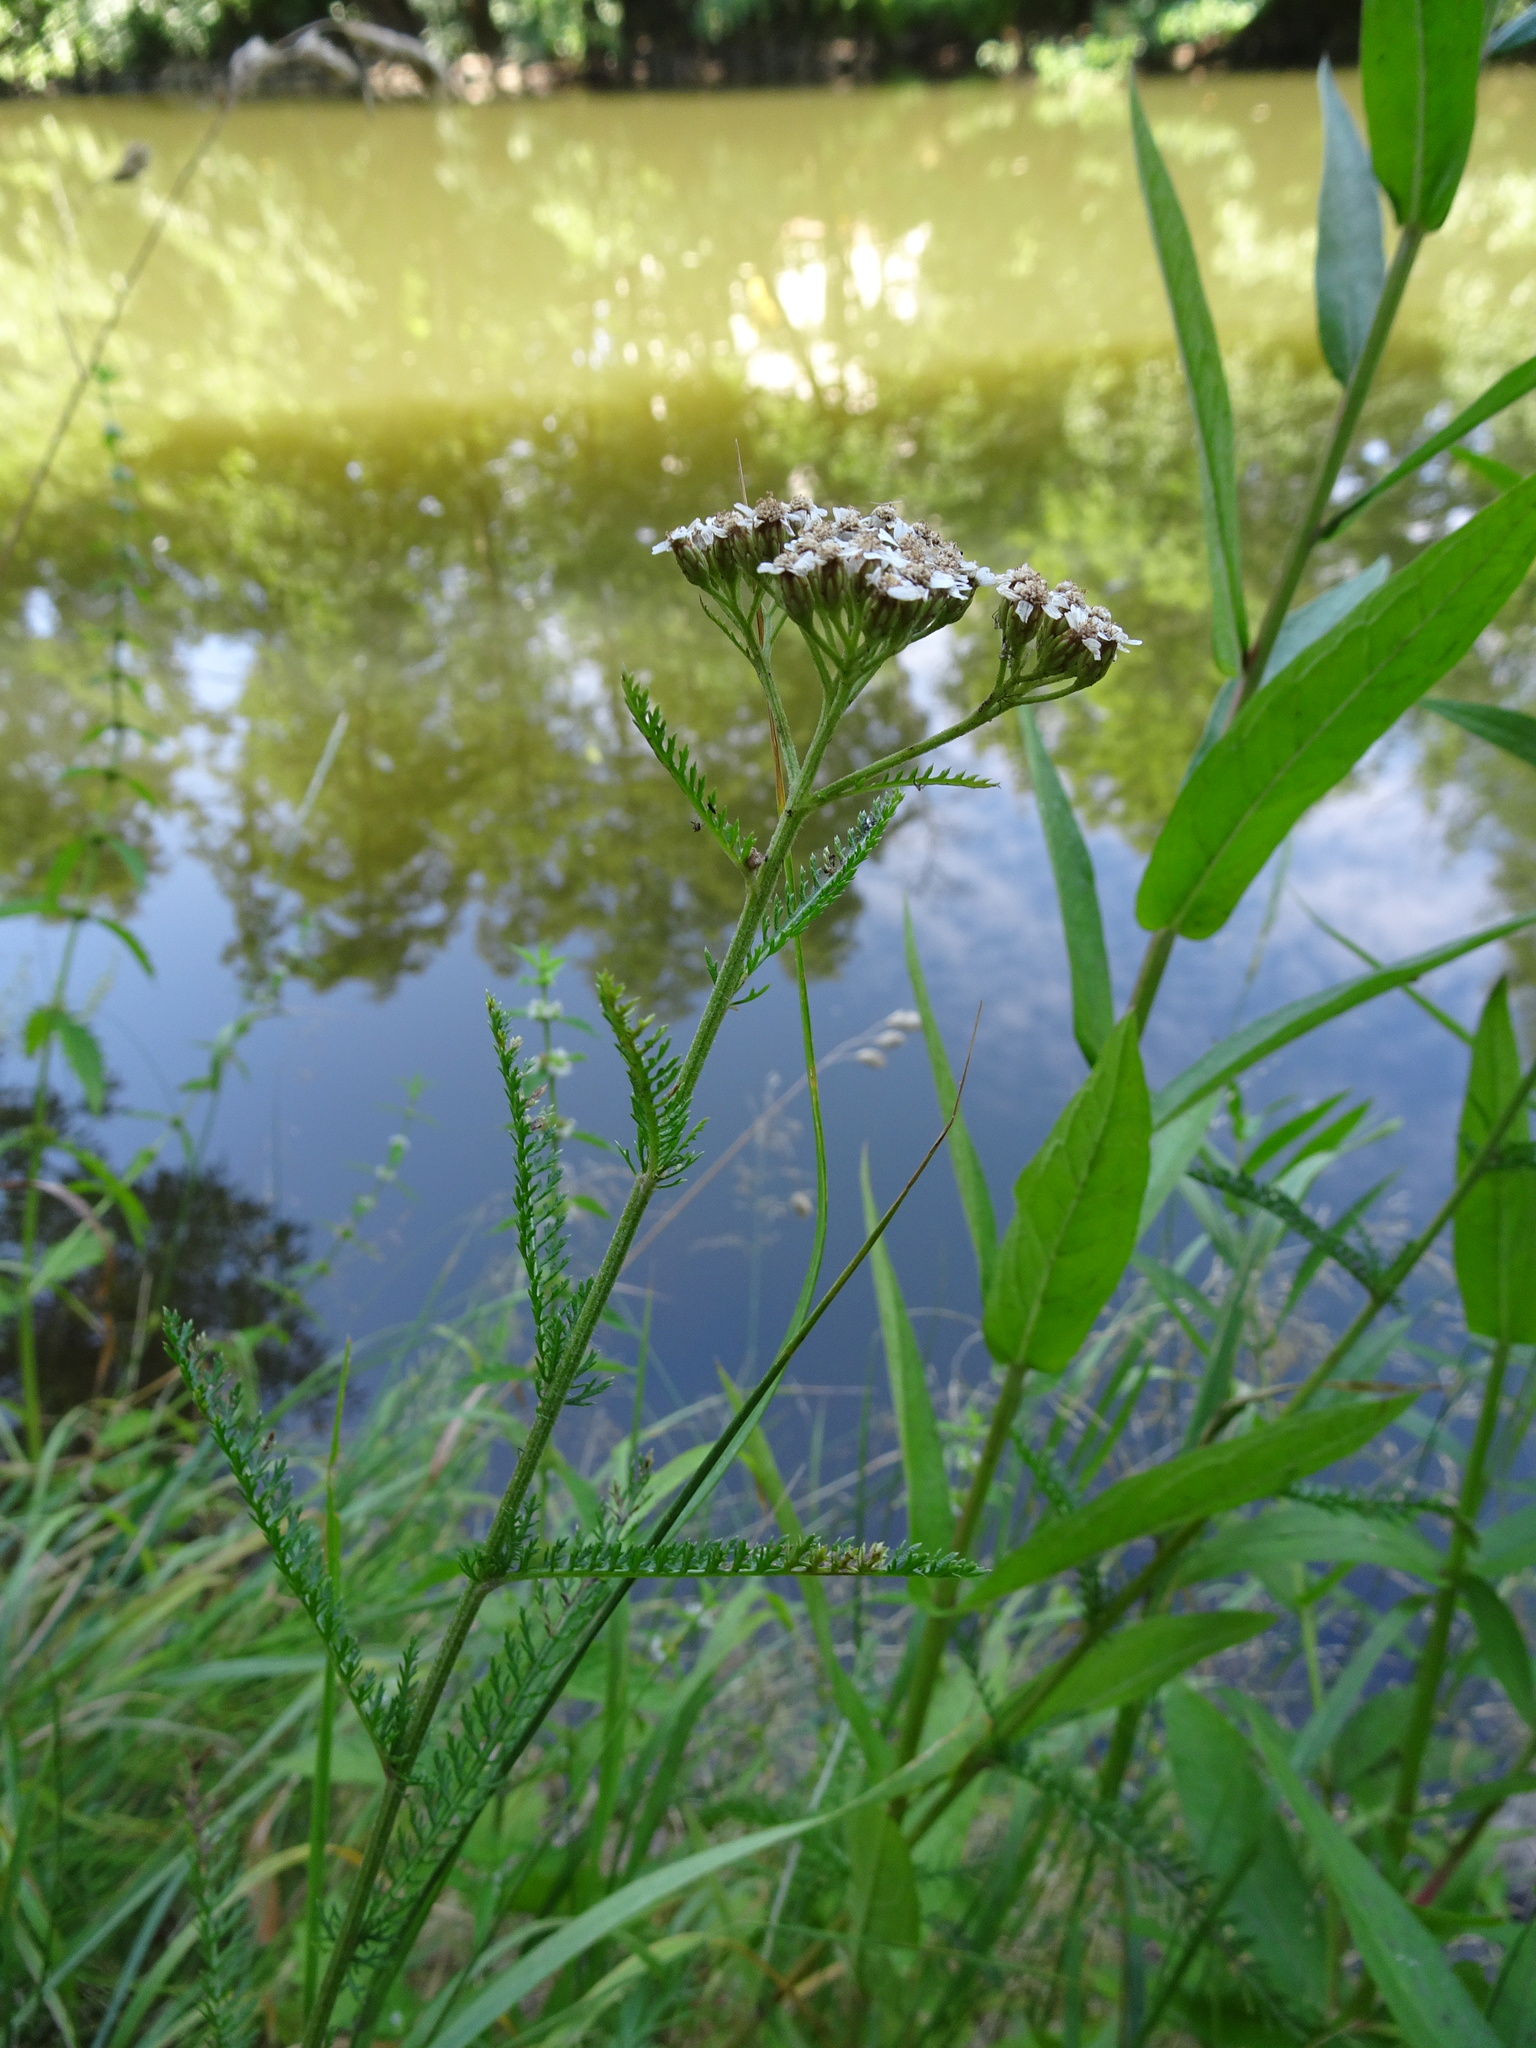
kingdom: Plantae
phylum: Tracheophyta
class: Magnoliopsida
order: Asterales
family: Asteraceae
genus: Achillea
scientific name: Achillea millefolium
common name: Yarrow
